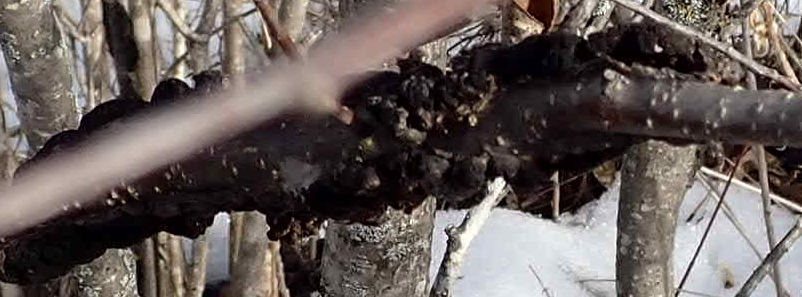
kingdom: Fungi
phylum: Ascomycota
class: Dothideomycetes
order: Venturiales
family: Venturiaceae
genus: Apiosporina
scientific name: Apiosporina morbosa
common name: Black knot
